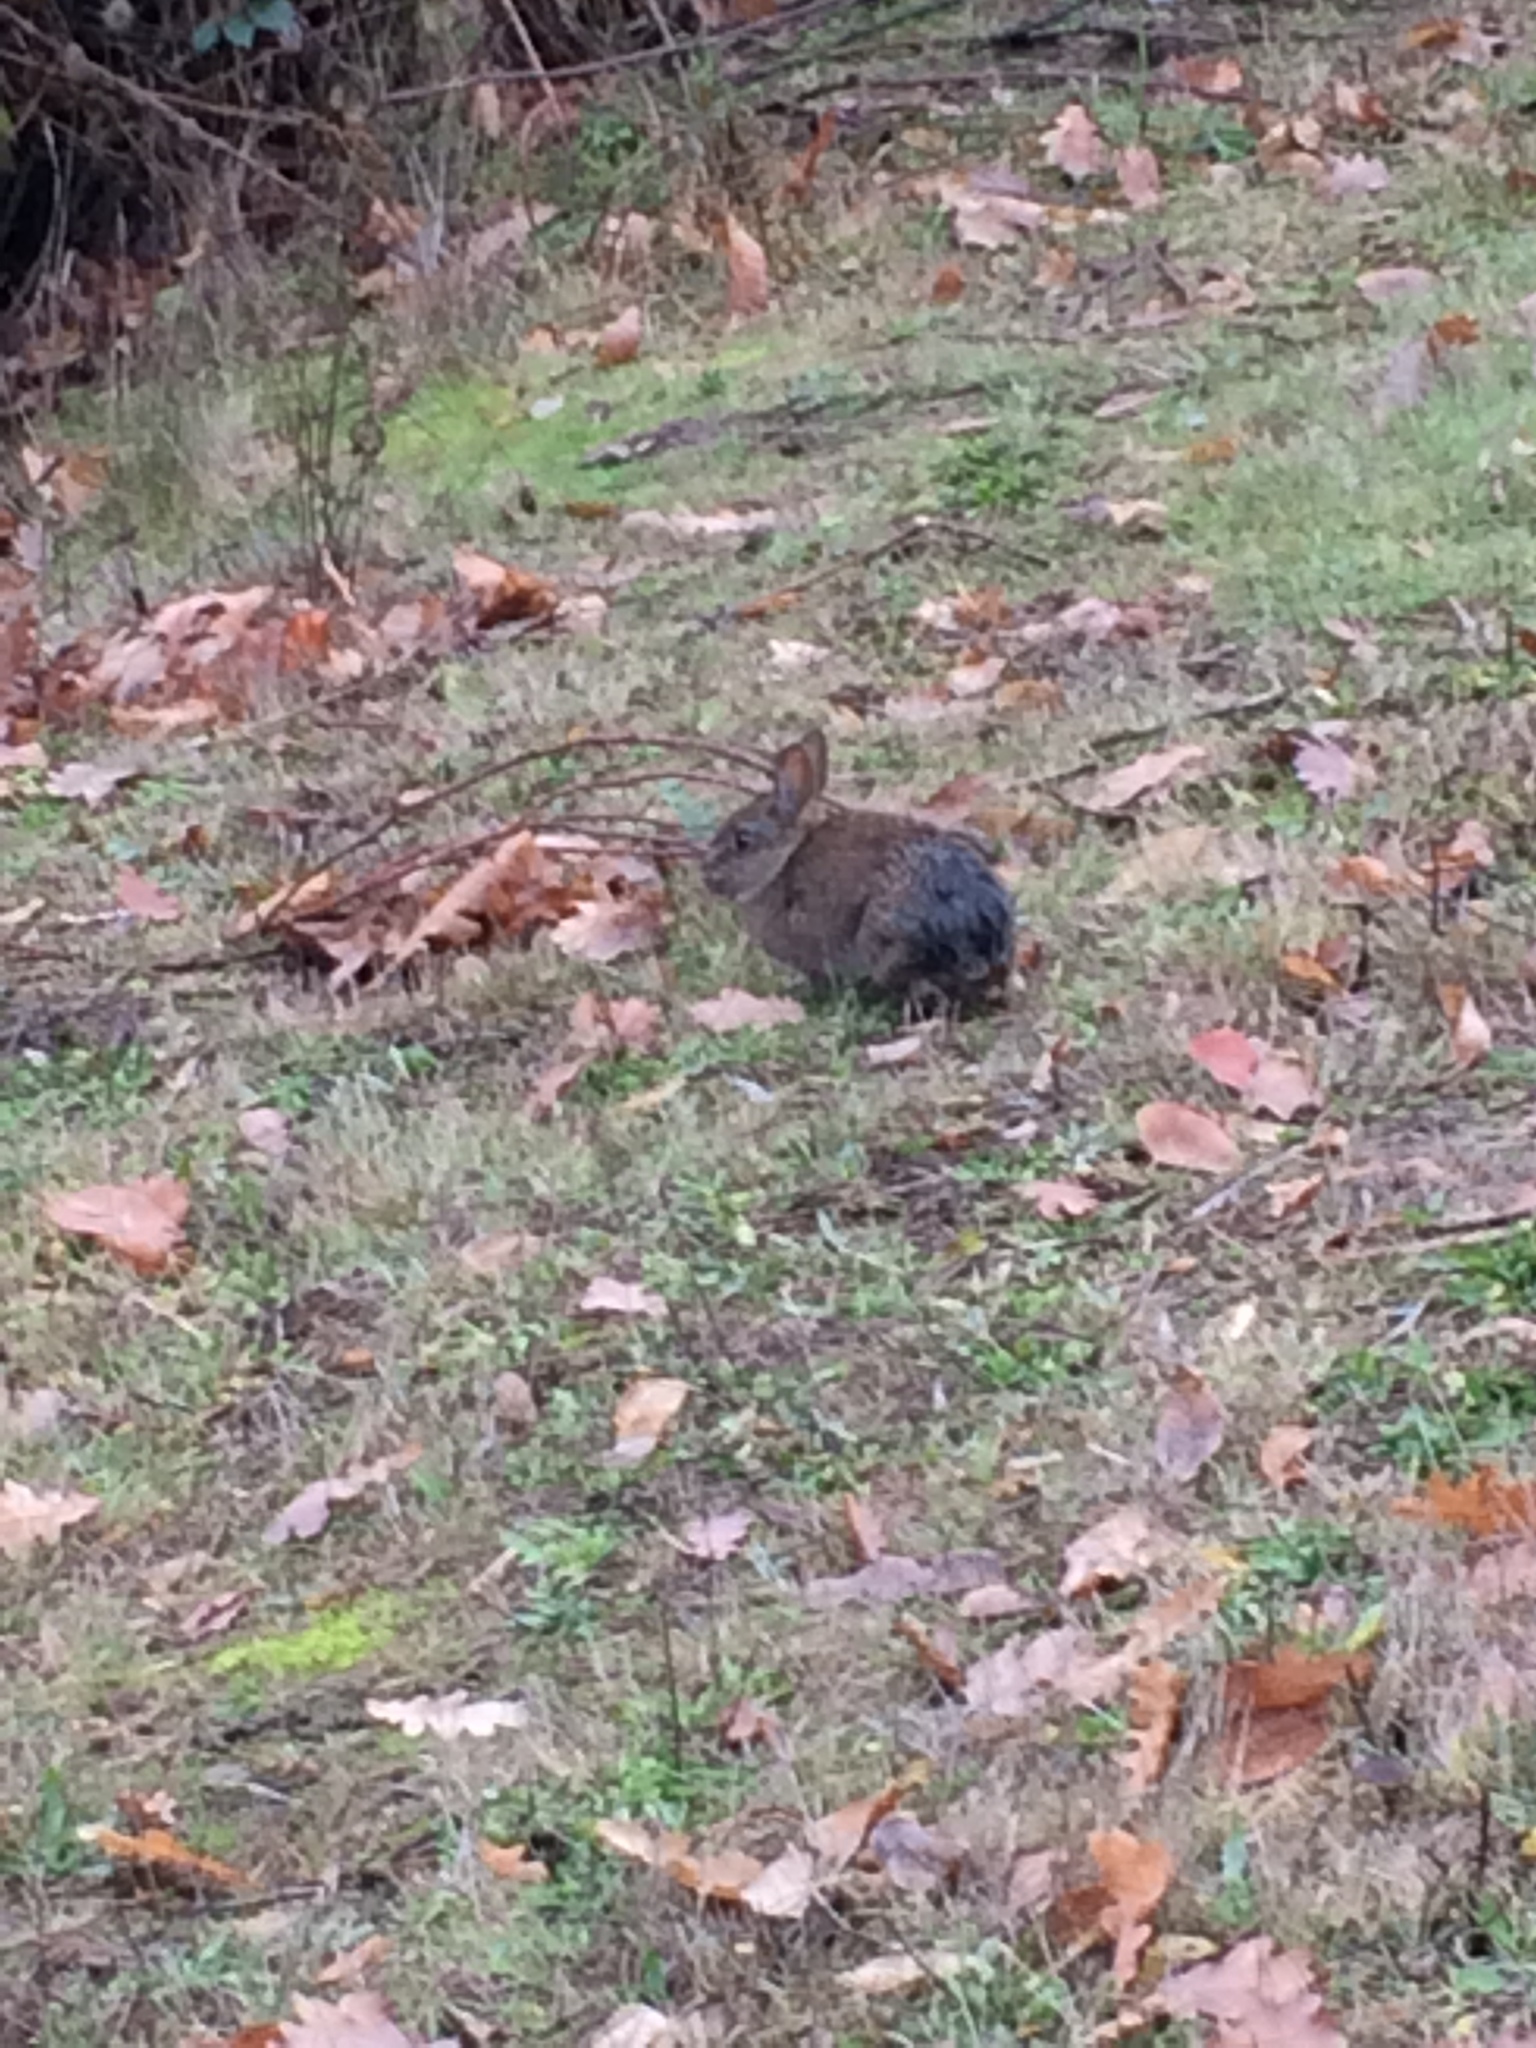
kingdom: Animalia
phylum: Chordata
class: Mammalia
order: Lagomorpha
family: Leporidae
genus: Sylvilagus
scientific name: Sylvilagus bachmani
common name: Brush rabbit
